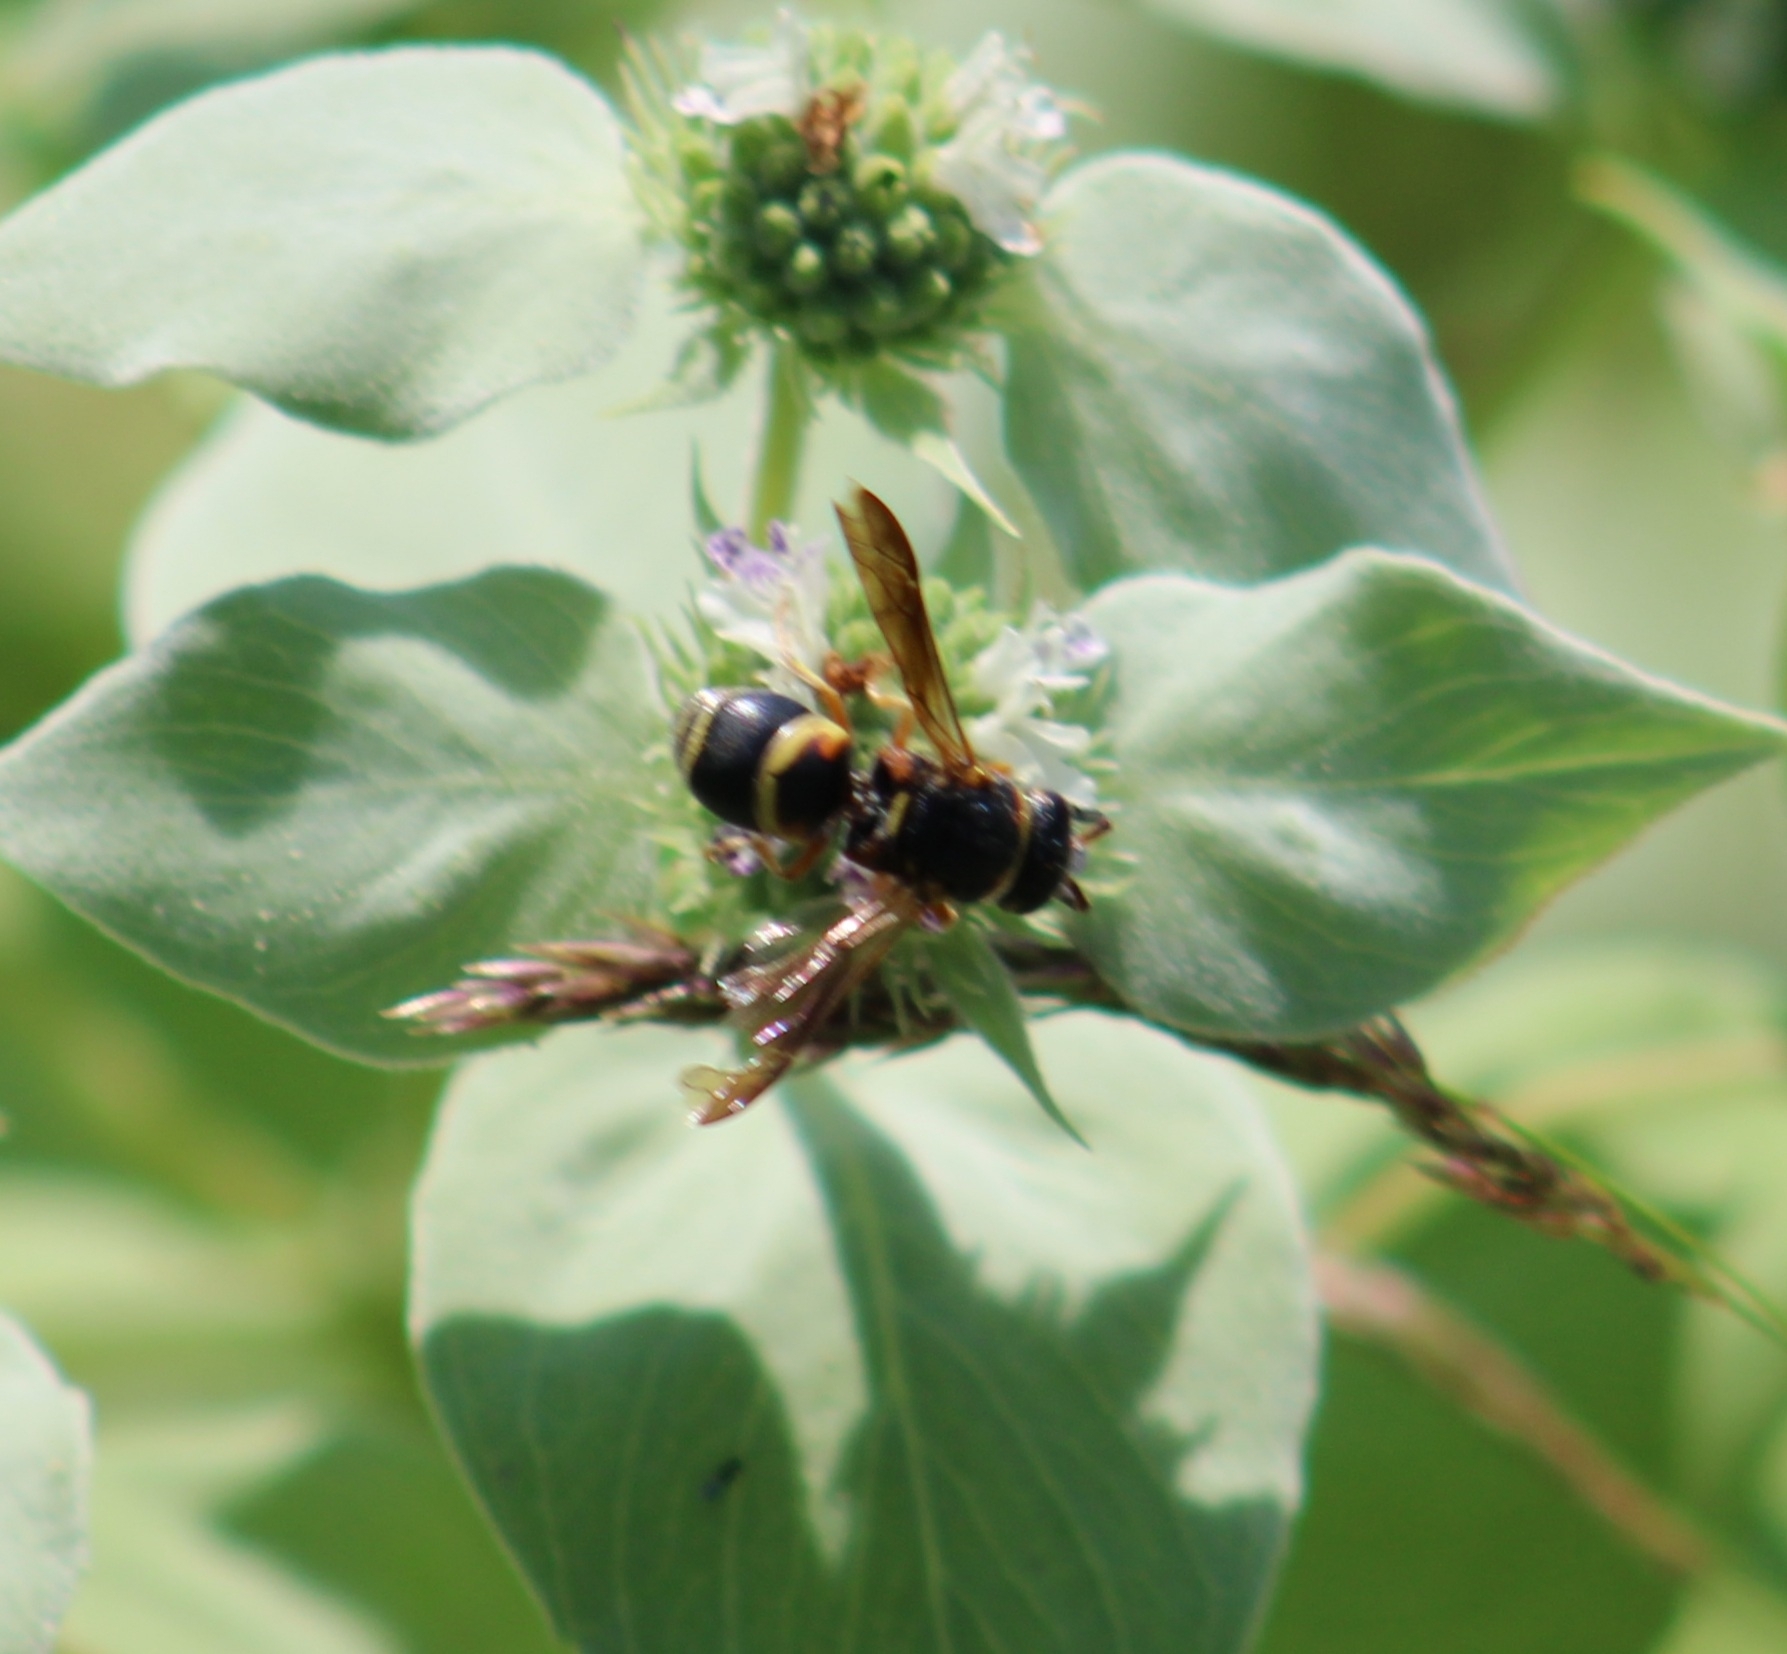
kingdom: Animalia
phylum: Arthropoda
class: Insecta
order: Hymenoptera
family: Eumenidae
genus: Euodynerus
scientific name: Euodynerus hidalgo
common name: Wasp
